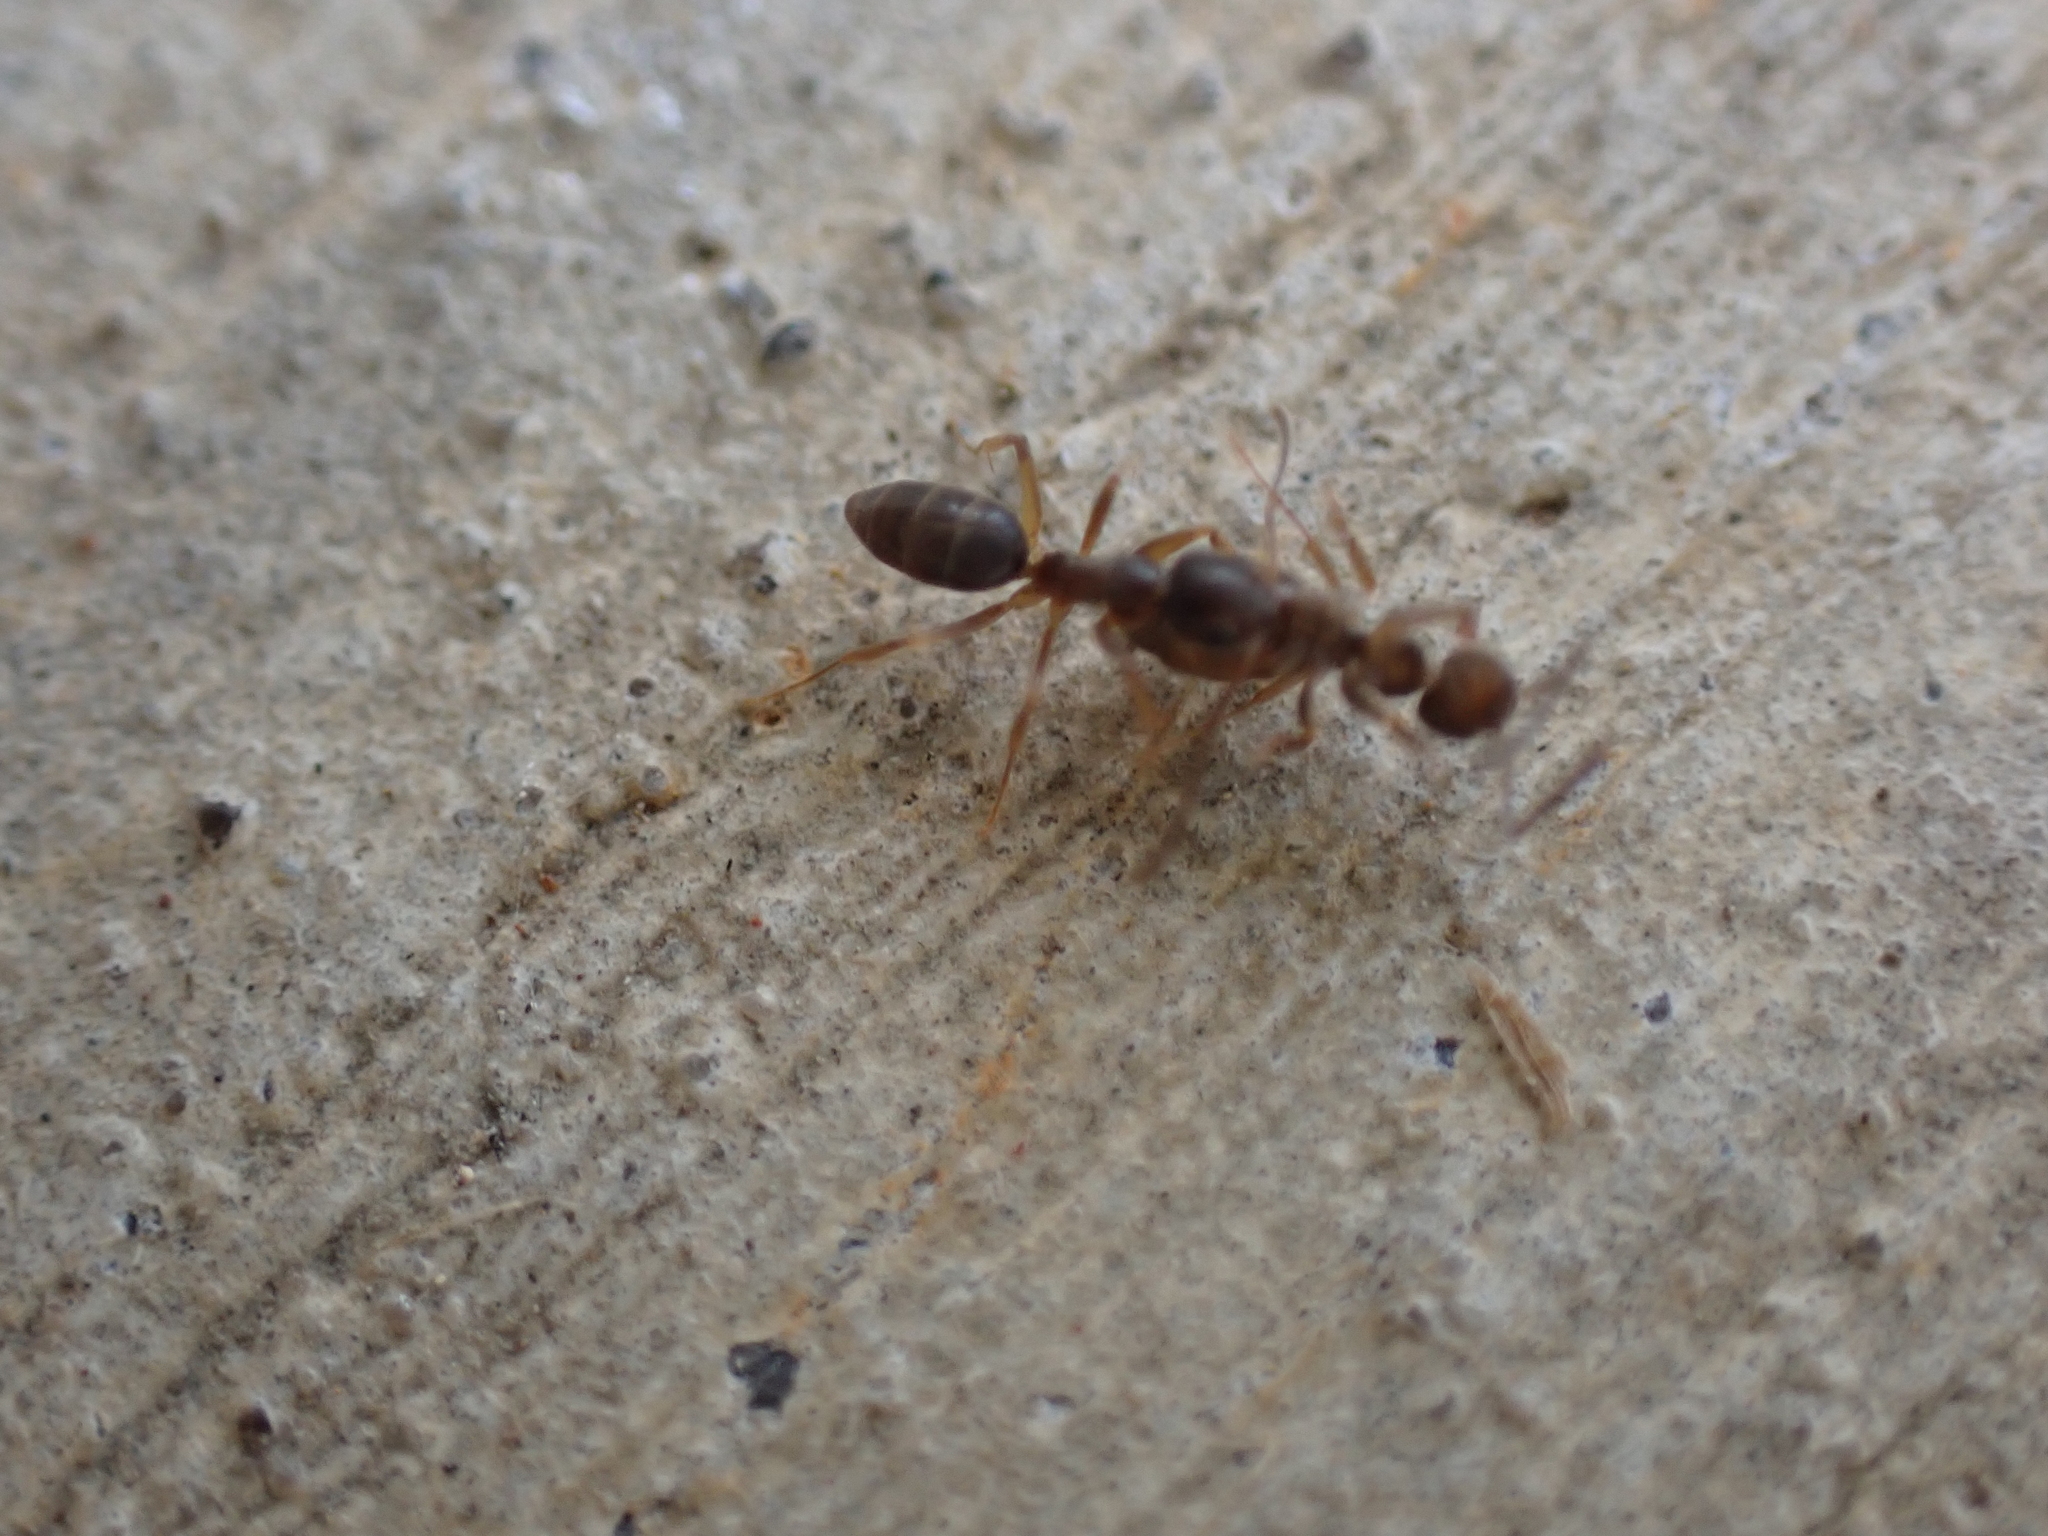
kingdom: Animalia
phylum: Arthropoda
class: Insecta
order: Hymenoptera
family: Formicidae
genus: Tapinoma
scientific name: Tapinoma sessile
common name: Odorous house ant
